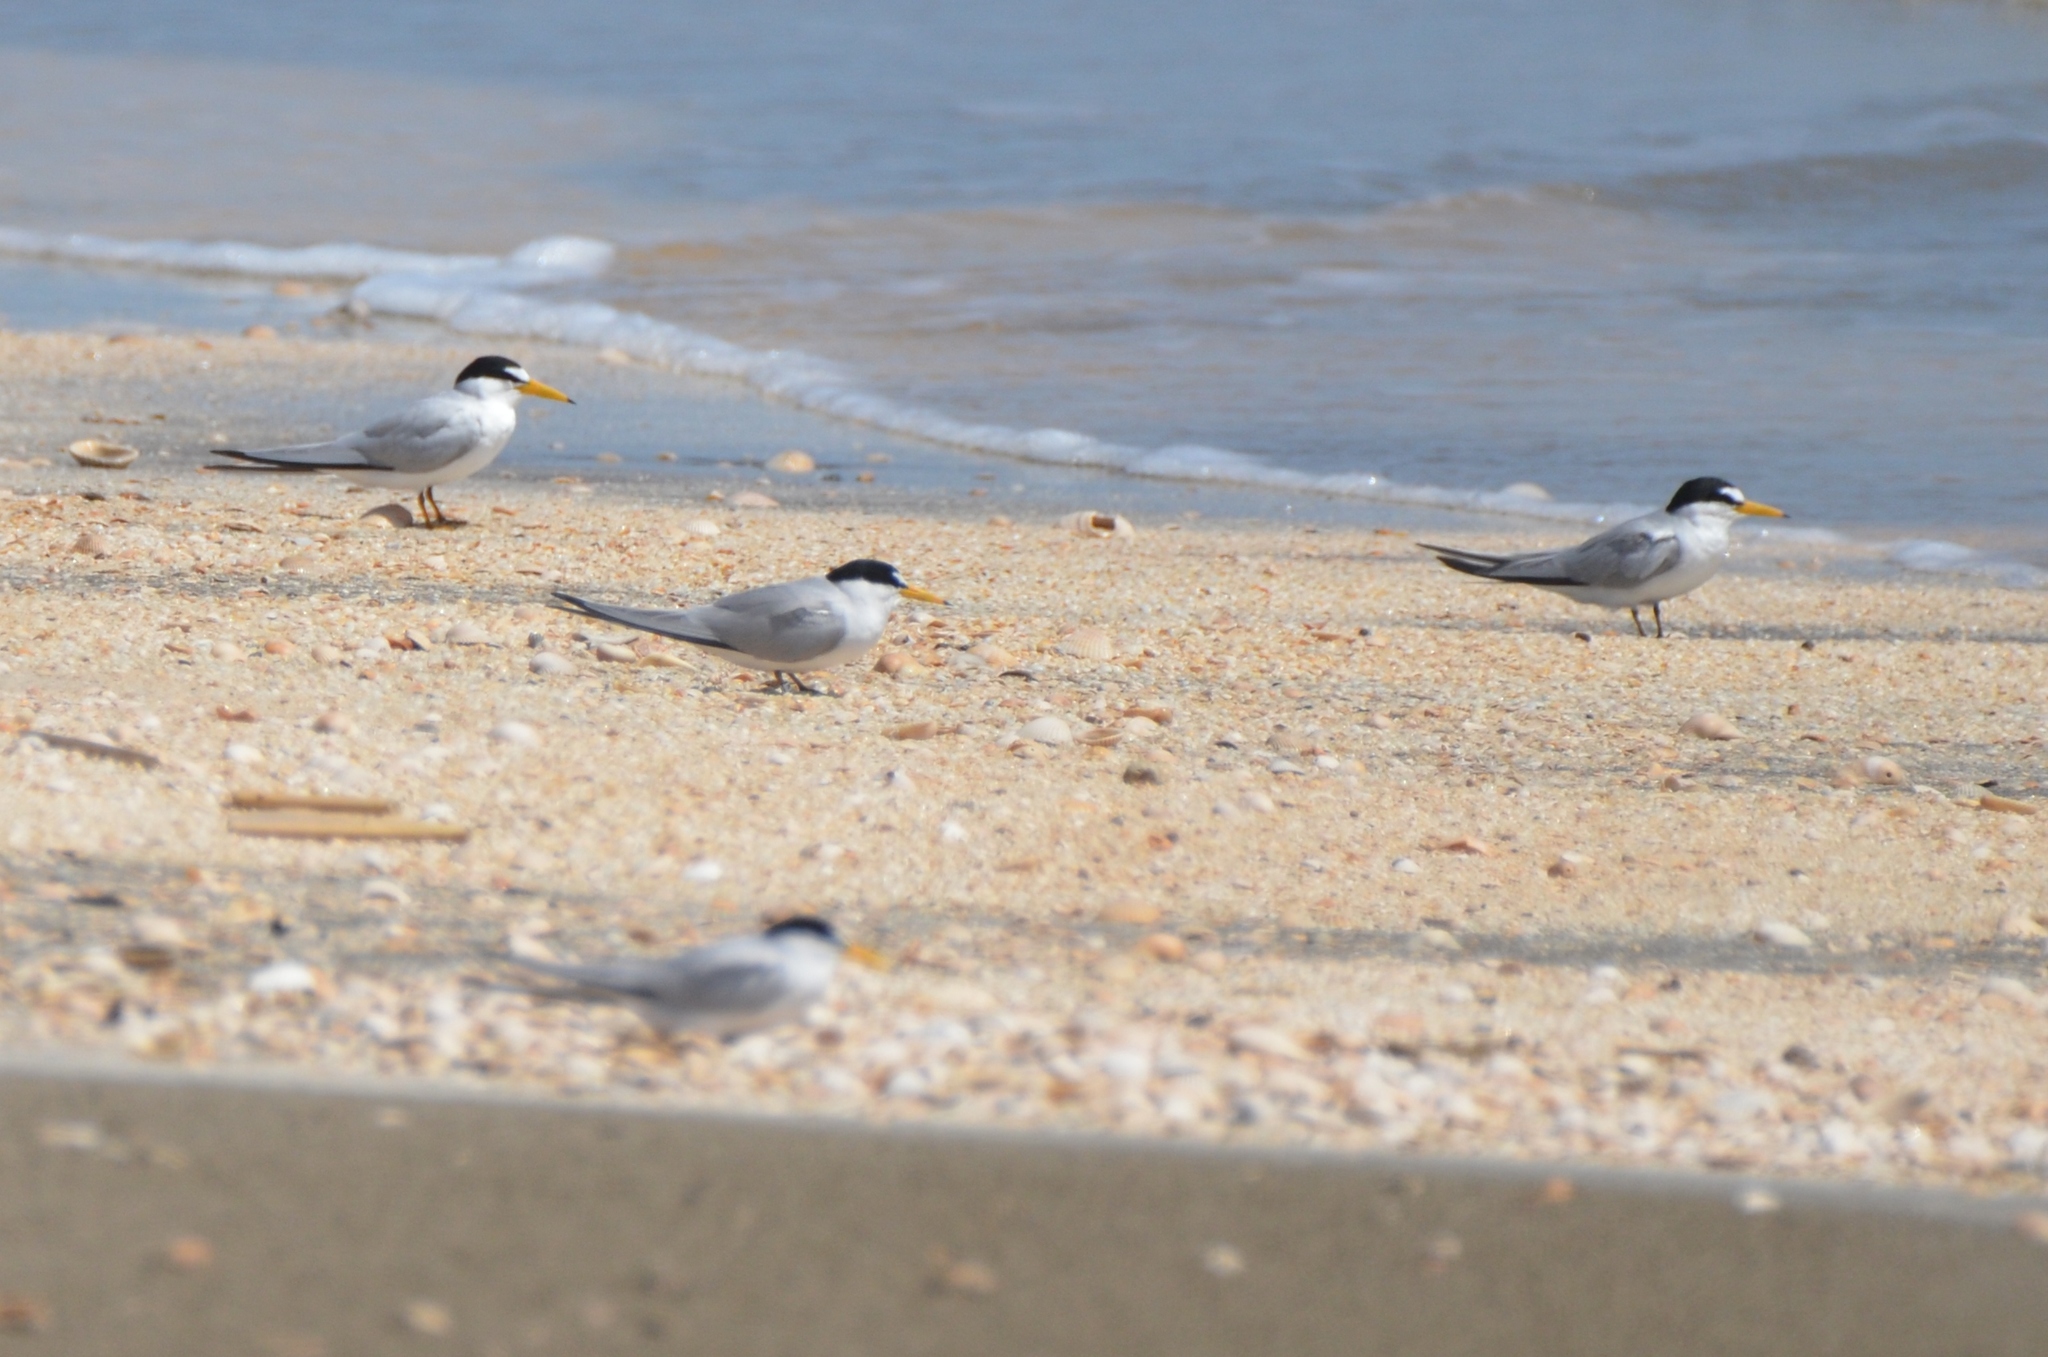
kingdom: Animalia
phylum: Chordata
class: Aves
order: Charadriiformes
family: Laridae
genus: Sternula
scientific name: Sternula antillarum
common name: Least tern
